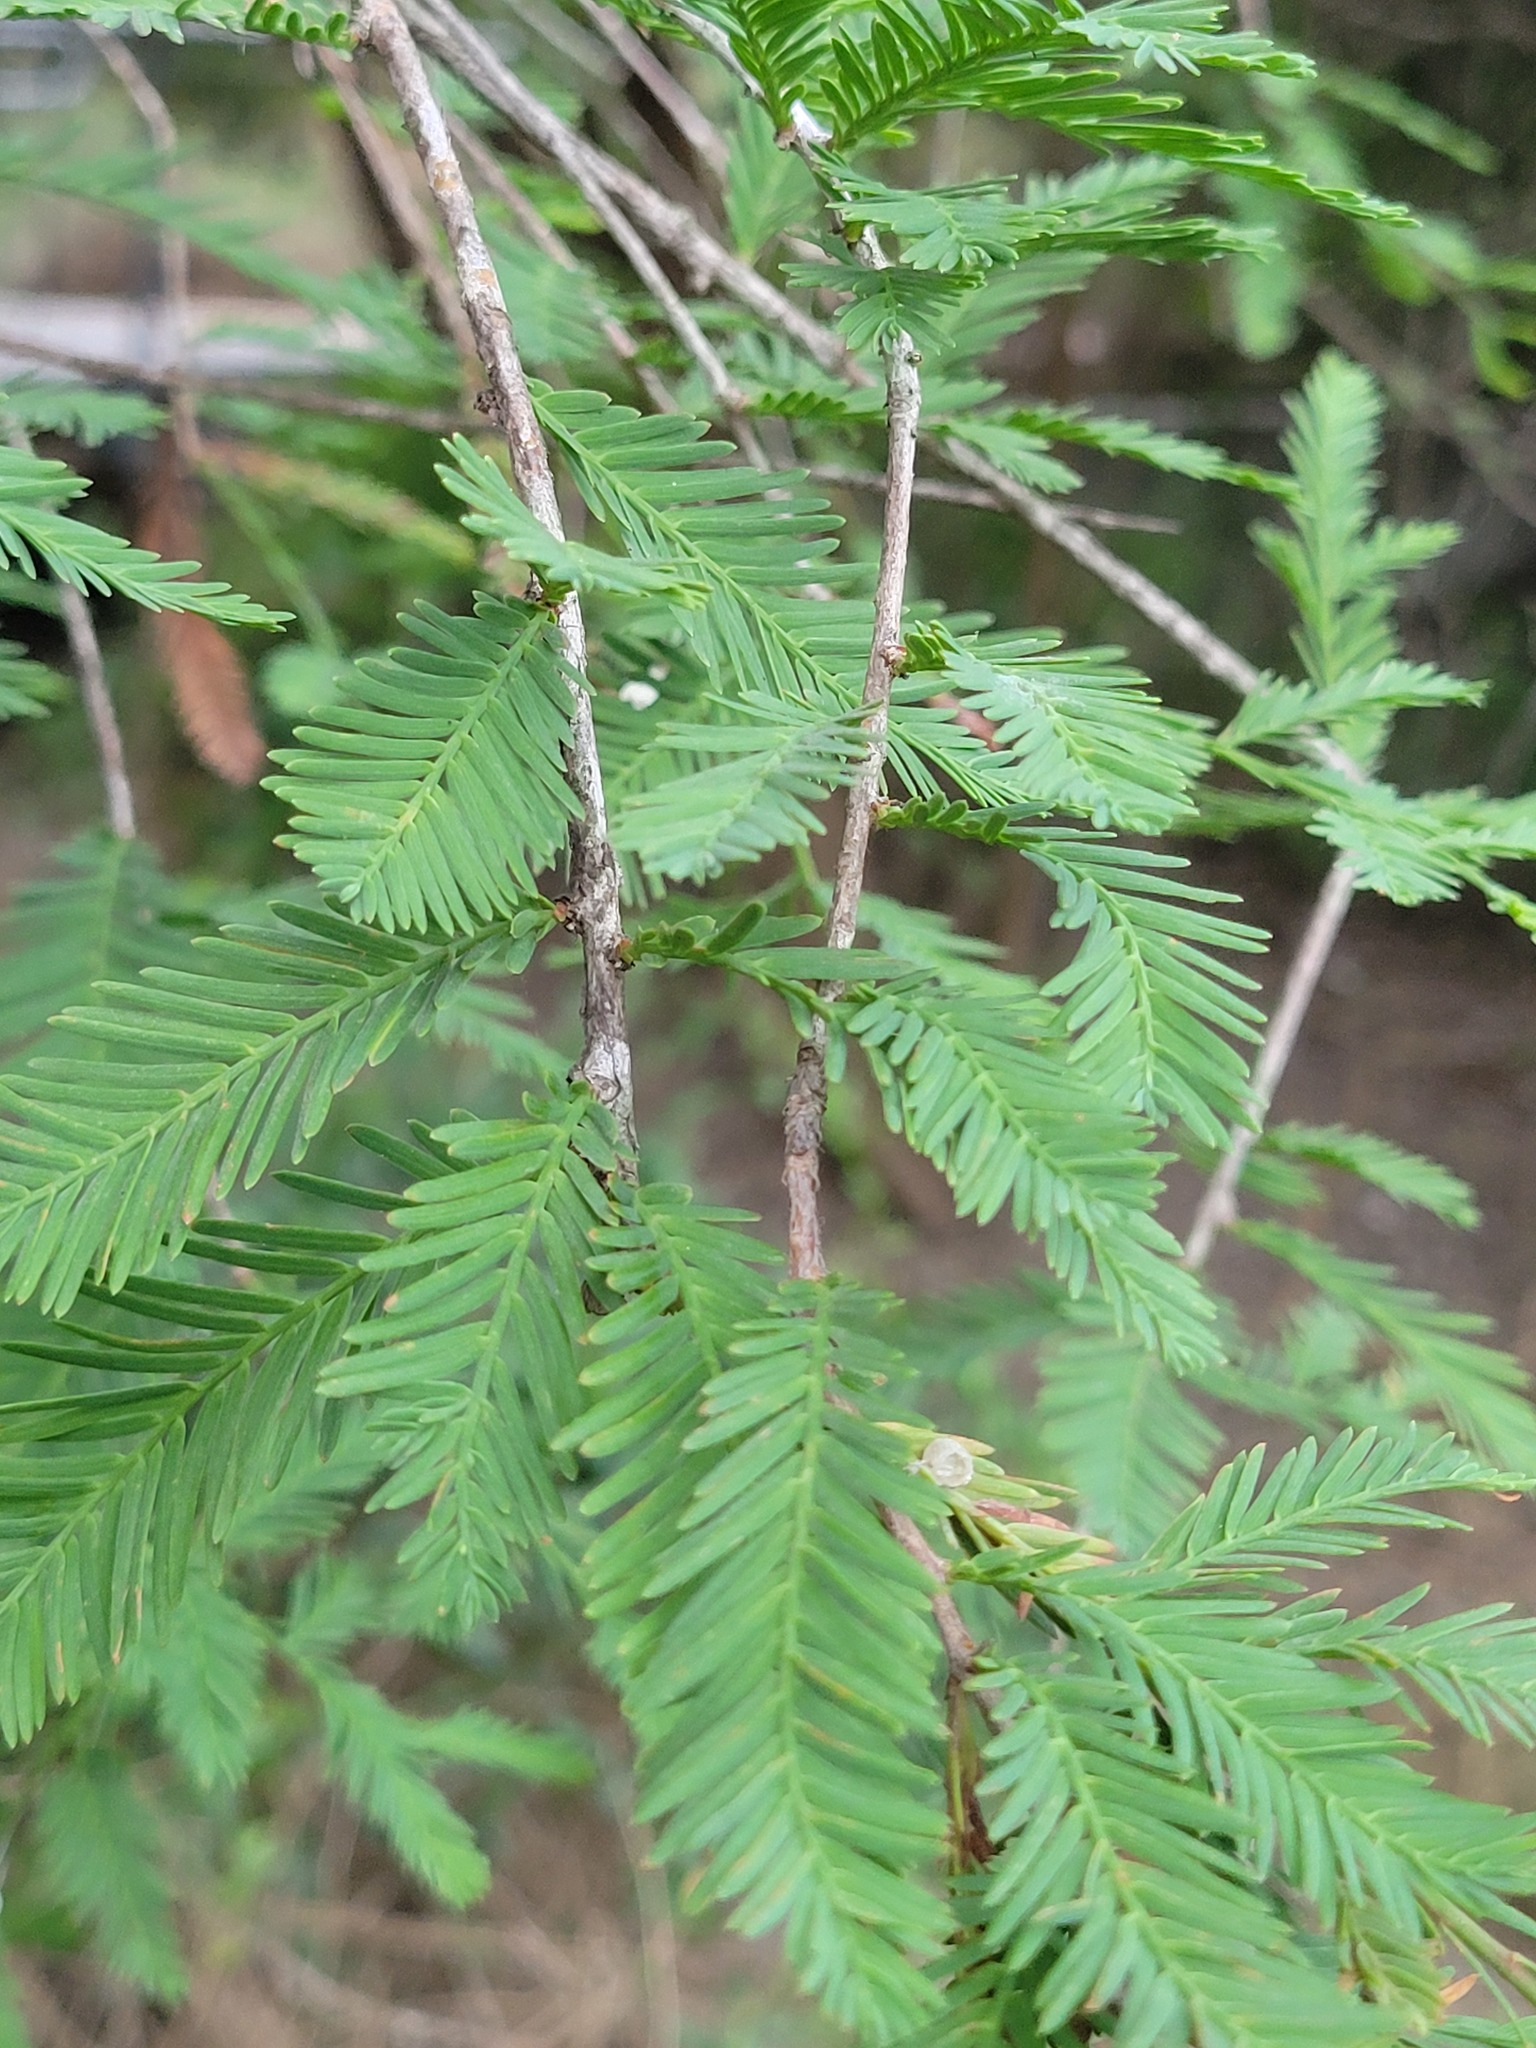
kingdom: Plantae
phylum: Tracheophyta
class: Pinopsida
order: Pinales
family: Cupressaceae
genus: Taxodium
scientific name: Taxodium mucronatum
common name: Montezume bald cypress
